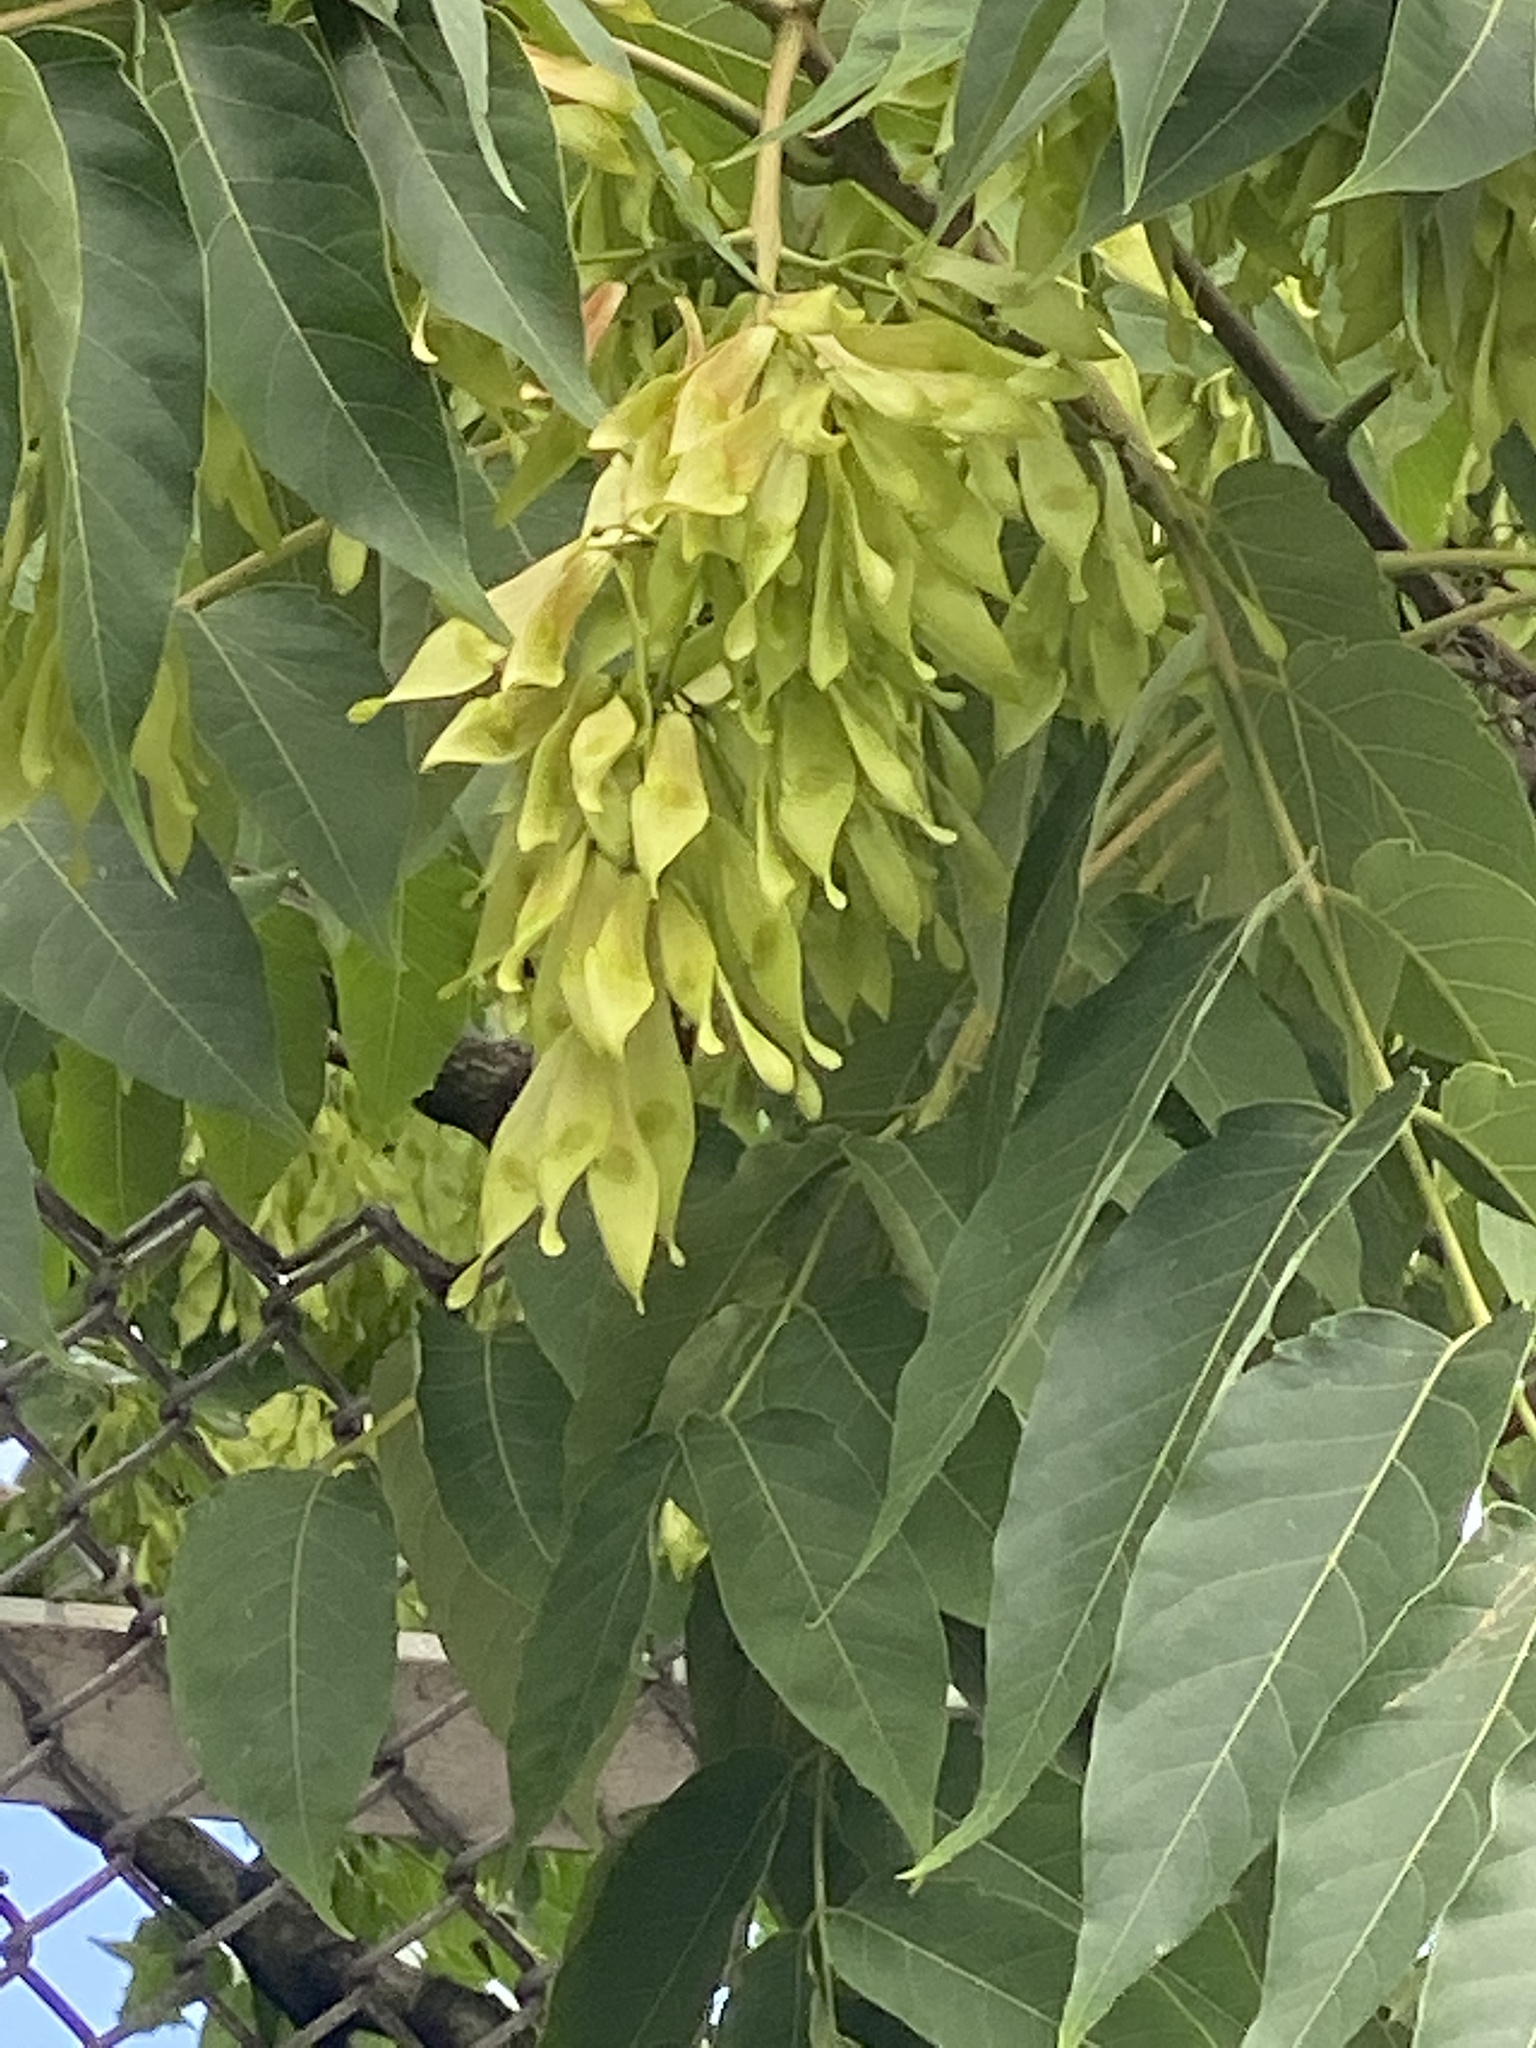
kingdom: Plantae
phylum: Tracheophyta
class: Magnoliopsida
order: Sapindales
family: Simaroubaceae
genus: Ailanthus
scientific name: Ailanthus altissima
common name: Tree-of-heaven
